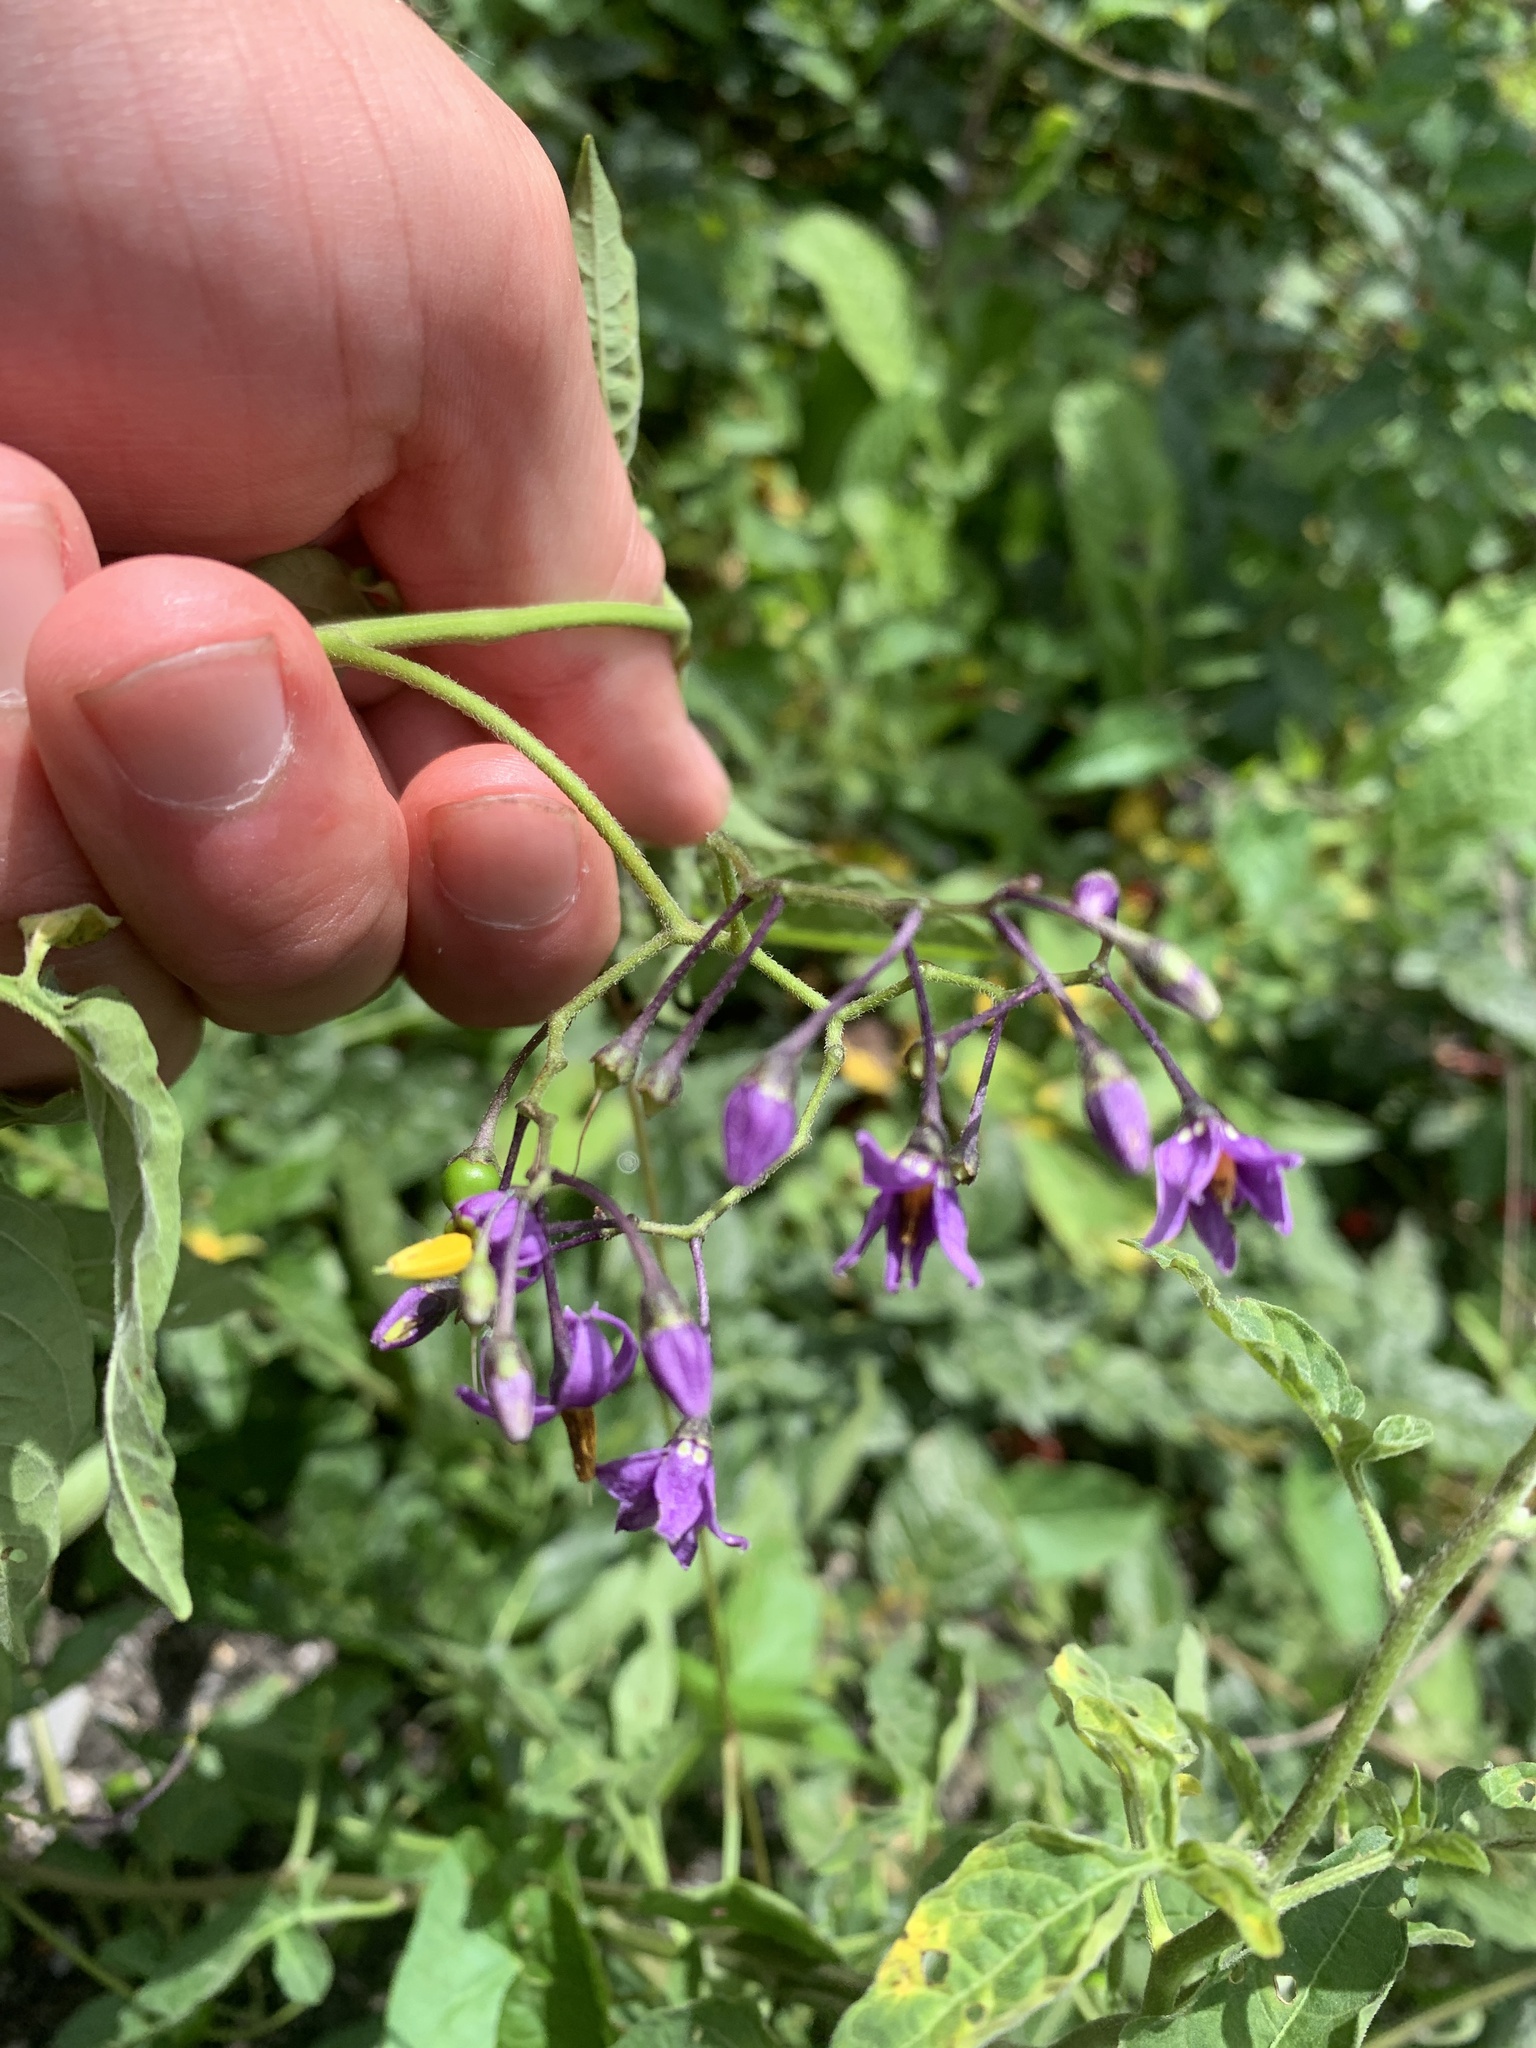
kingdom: Plantae
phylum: Tracheophyta
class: Magnoliopsida
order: Solanales
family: Solanaceae
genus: Solanum
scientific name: Solanum dulcamara
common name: Climbing nightshade
